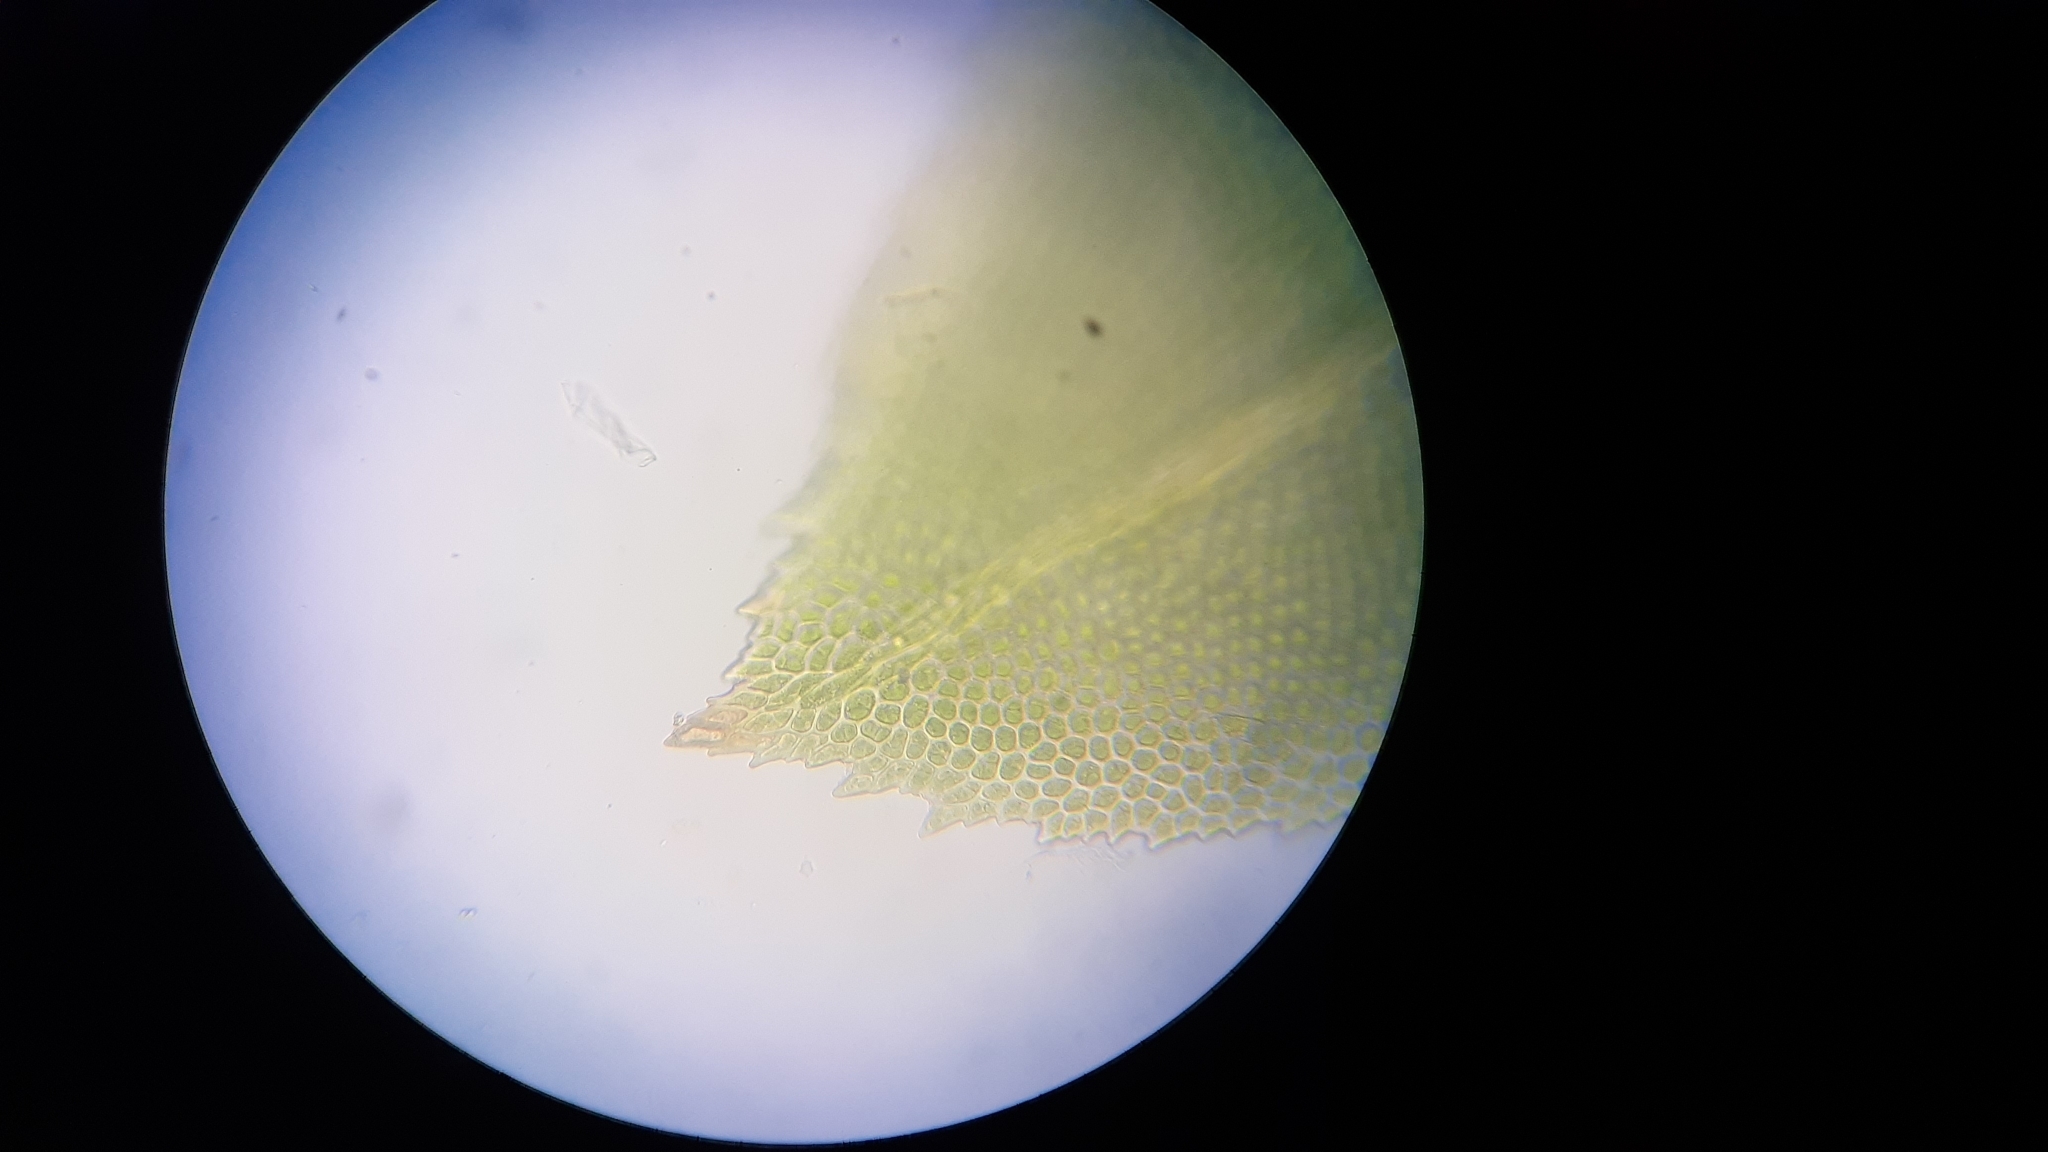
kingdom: Plantae
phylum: Bryophyta
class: Bryopsida
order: Dicranales
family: Fissidentaceae
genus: Fissidens
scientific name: Fissidens dubius
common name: Rock pocket moss
